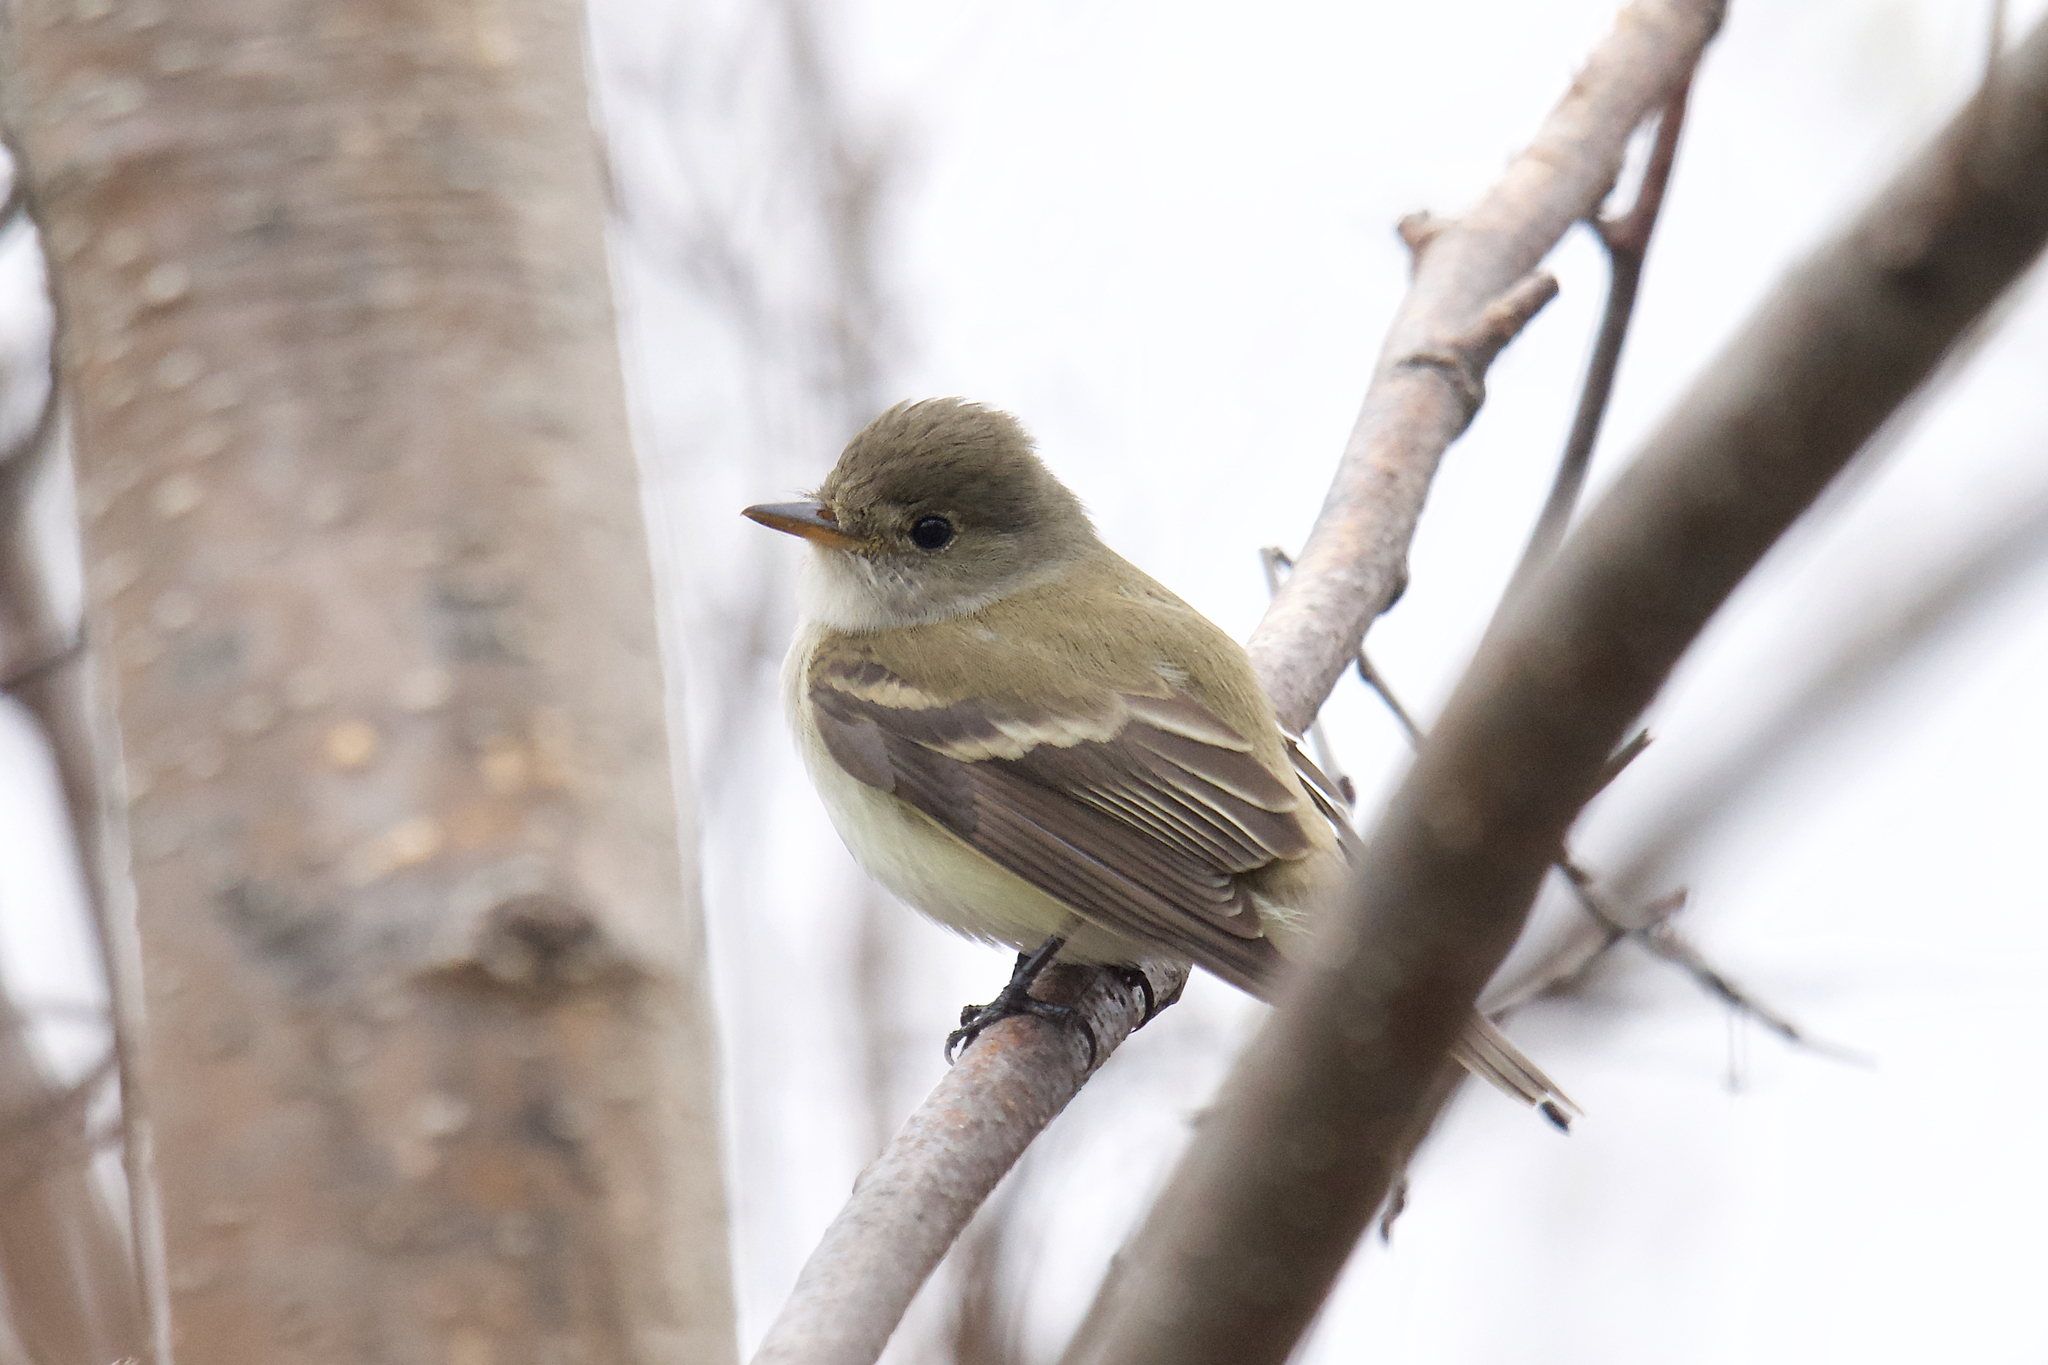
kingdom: Animalia
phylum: Chordata
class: Aves
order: Passeriformes
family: Tyrannidae
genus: Empidonax
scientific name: Empidonax traillii
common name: Willow flycatcher
